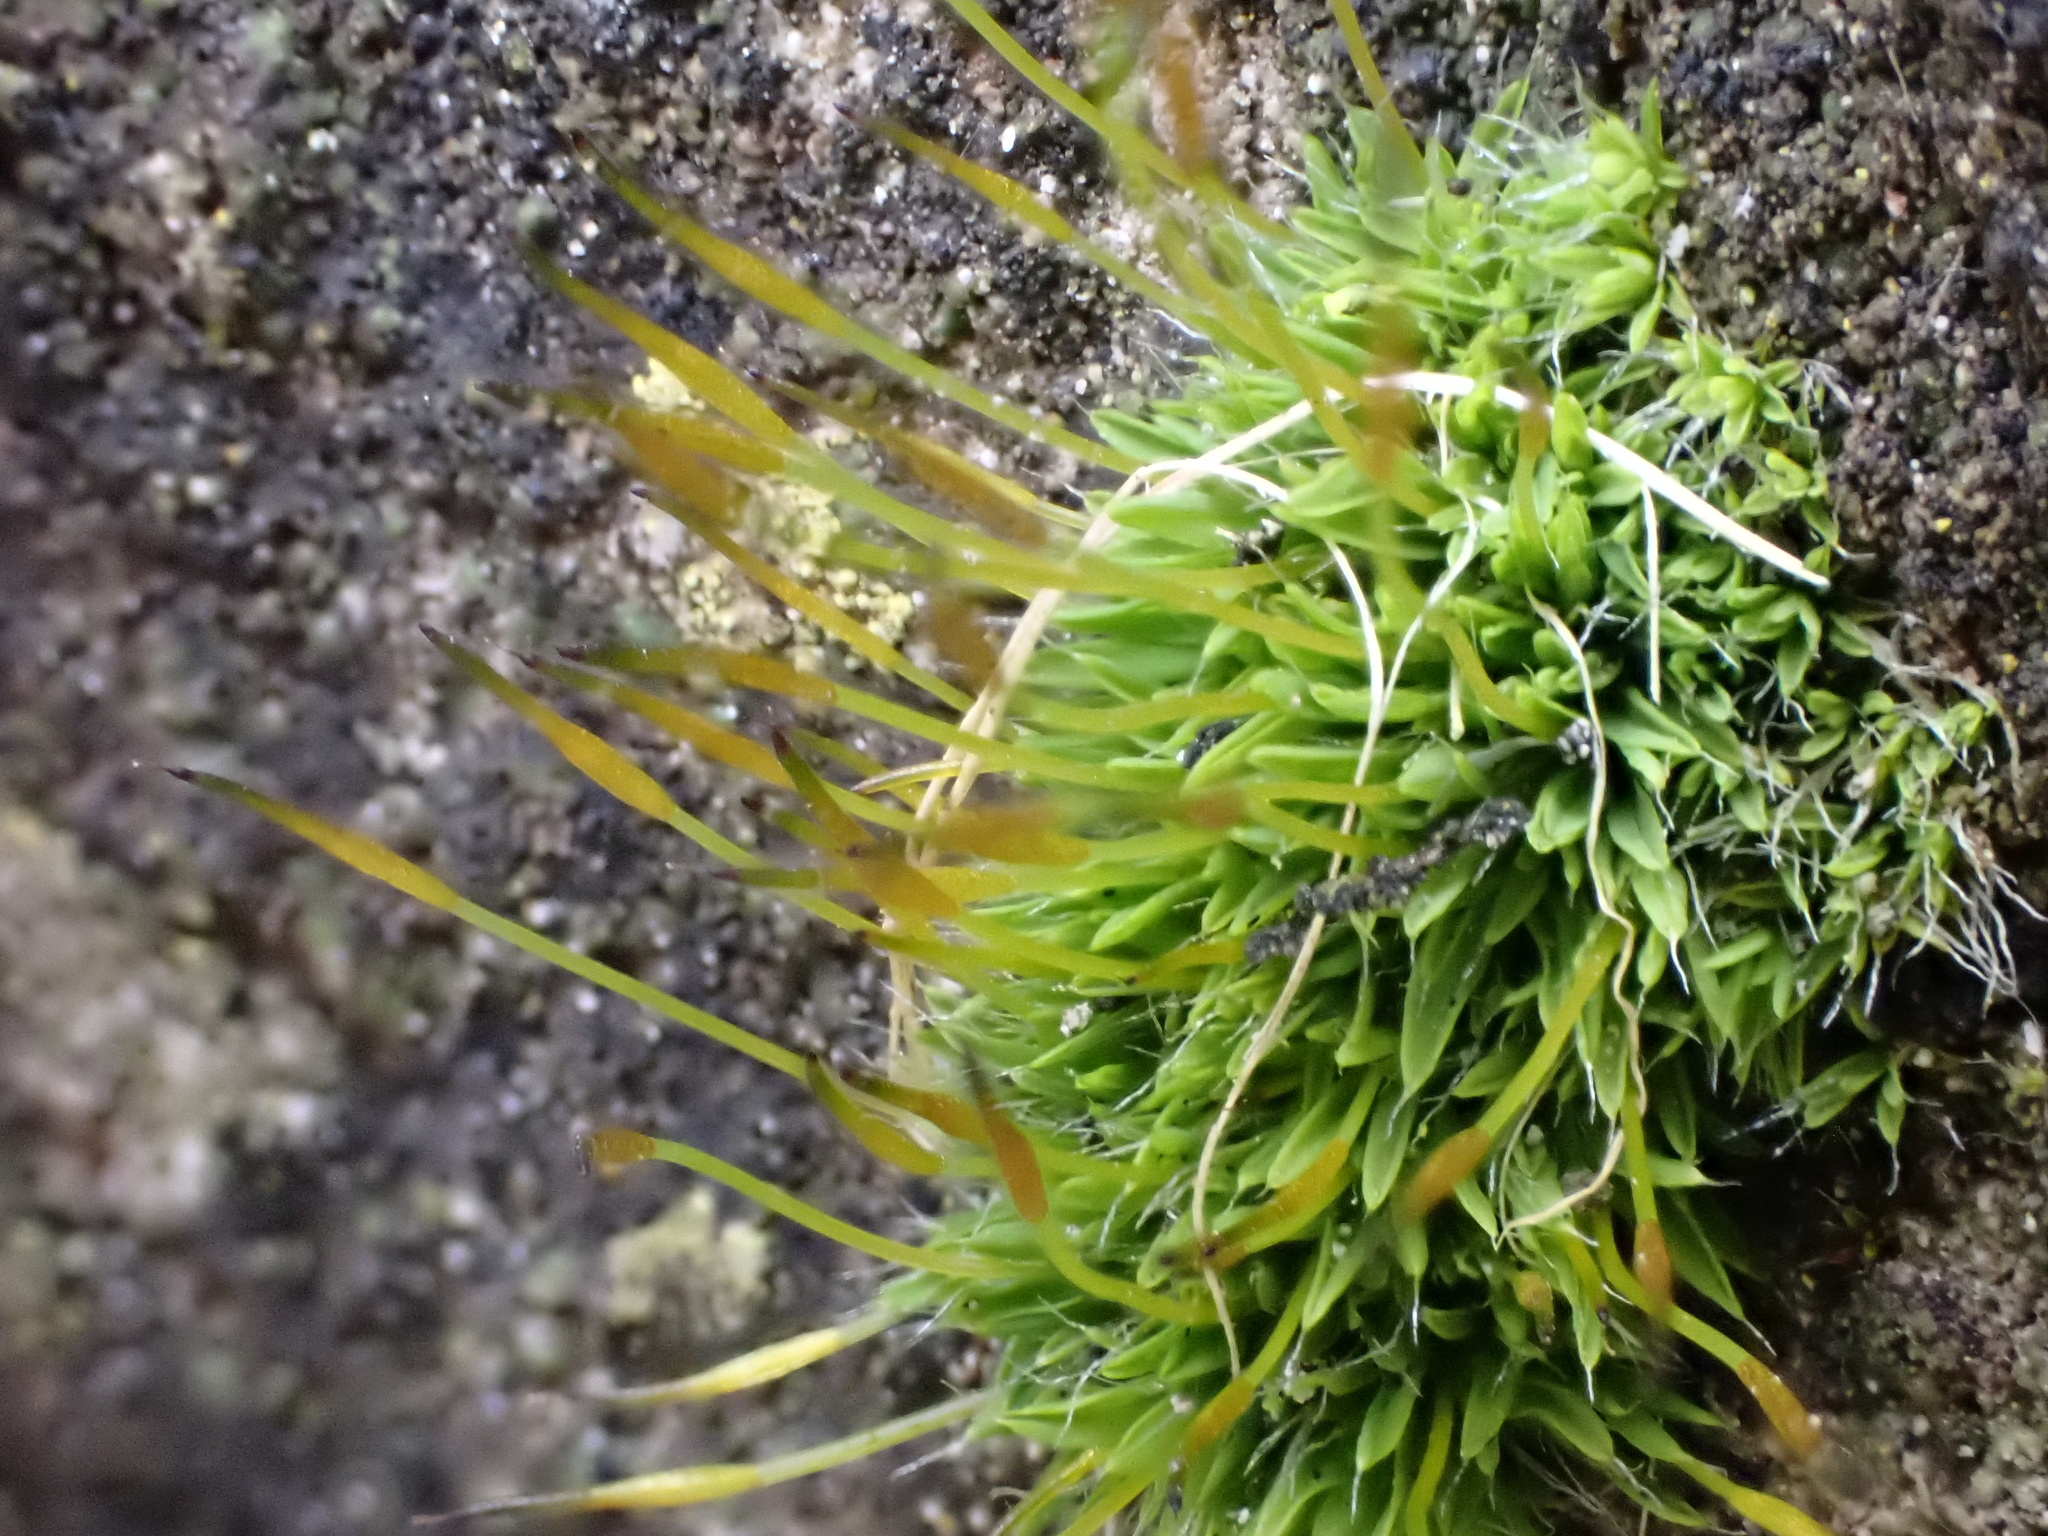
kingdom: Plantae
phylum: Bryophyta
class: Bryopsida
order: Pottiales
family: Pottiaceae
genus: Tortula
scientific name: Tortula muralis
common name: Wall screw-moss
